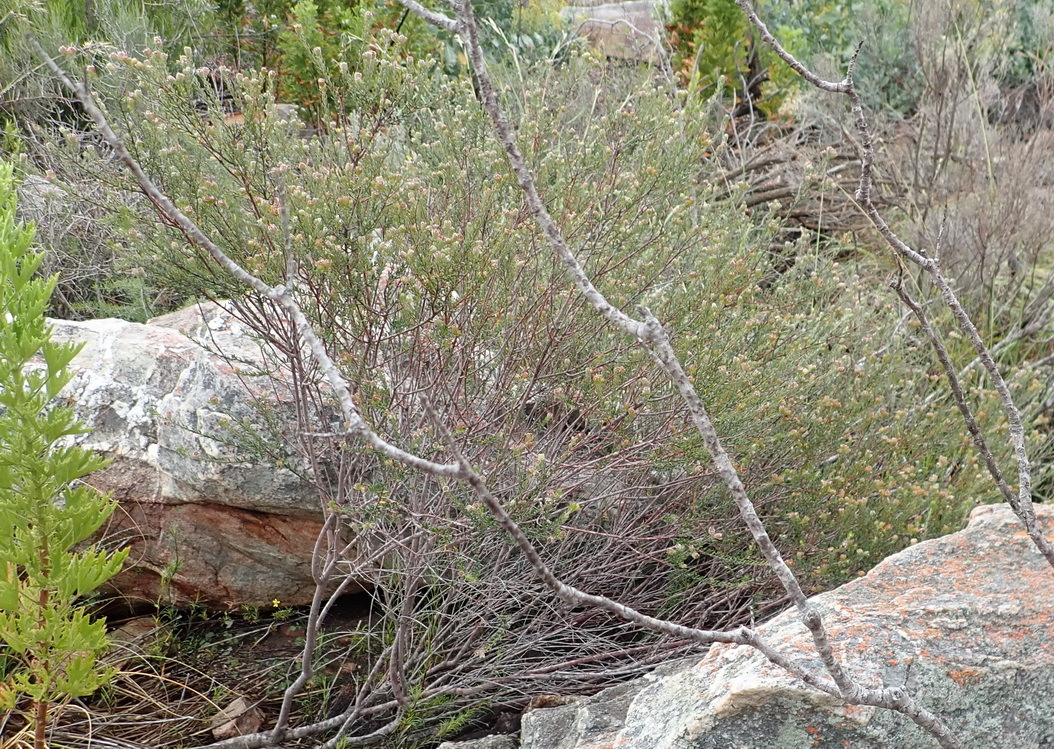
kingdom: Plantae
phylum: Tracheophyta
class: Magnoliopsida
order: Rosales
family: Rhamnaceae
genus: Phylica
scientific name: Phylica purpurea
